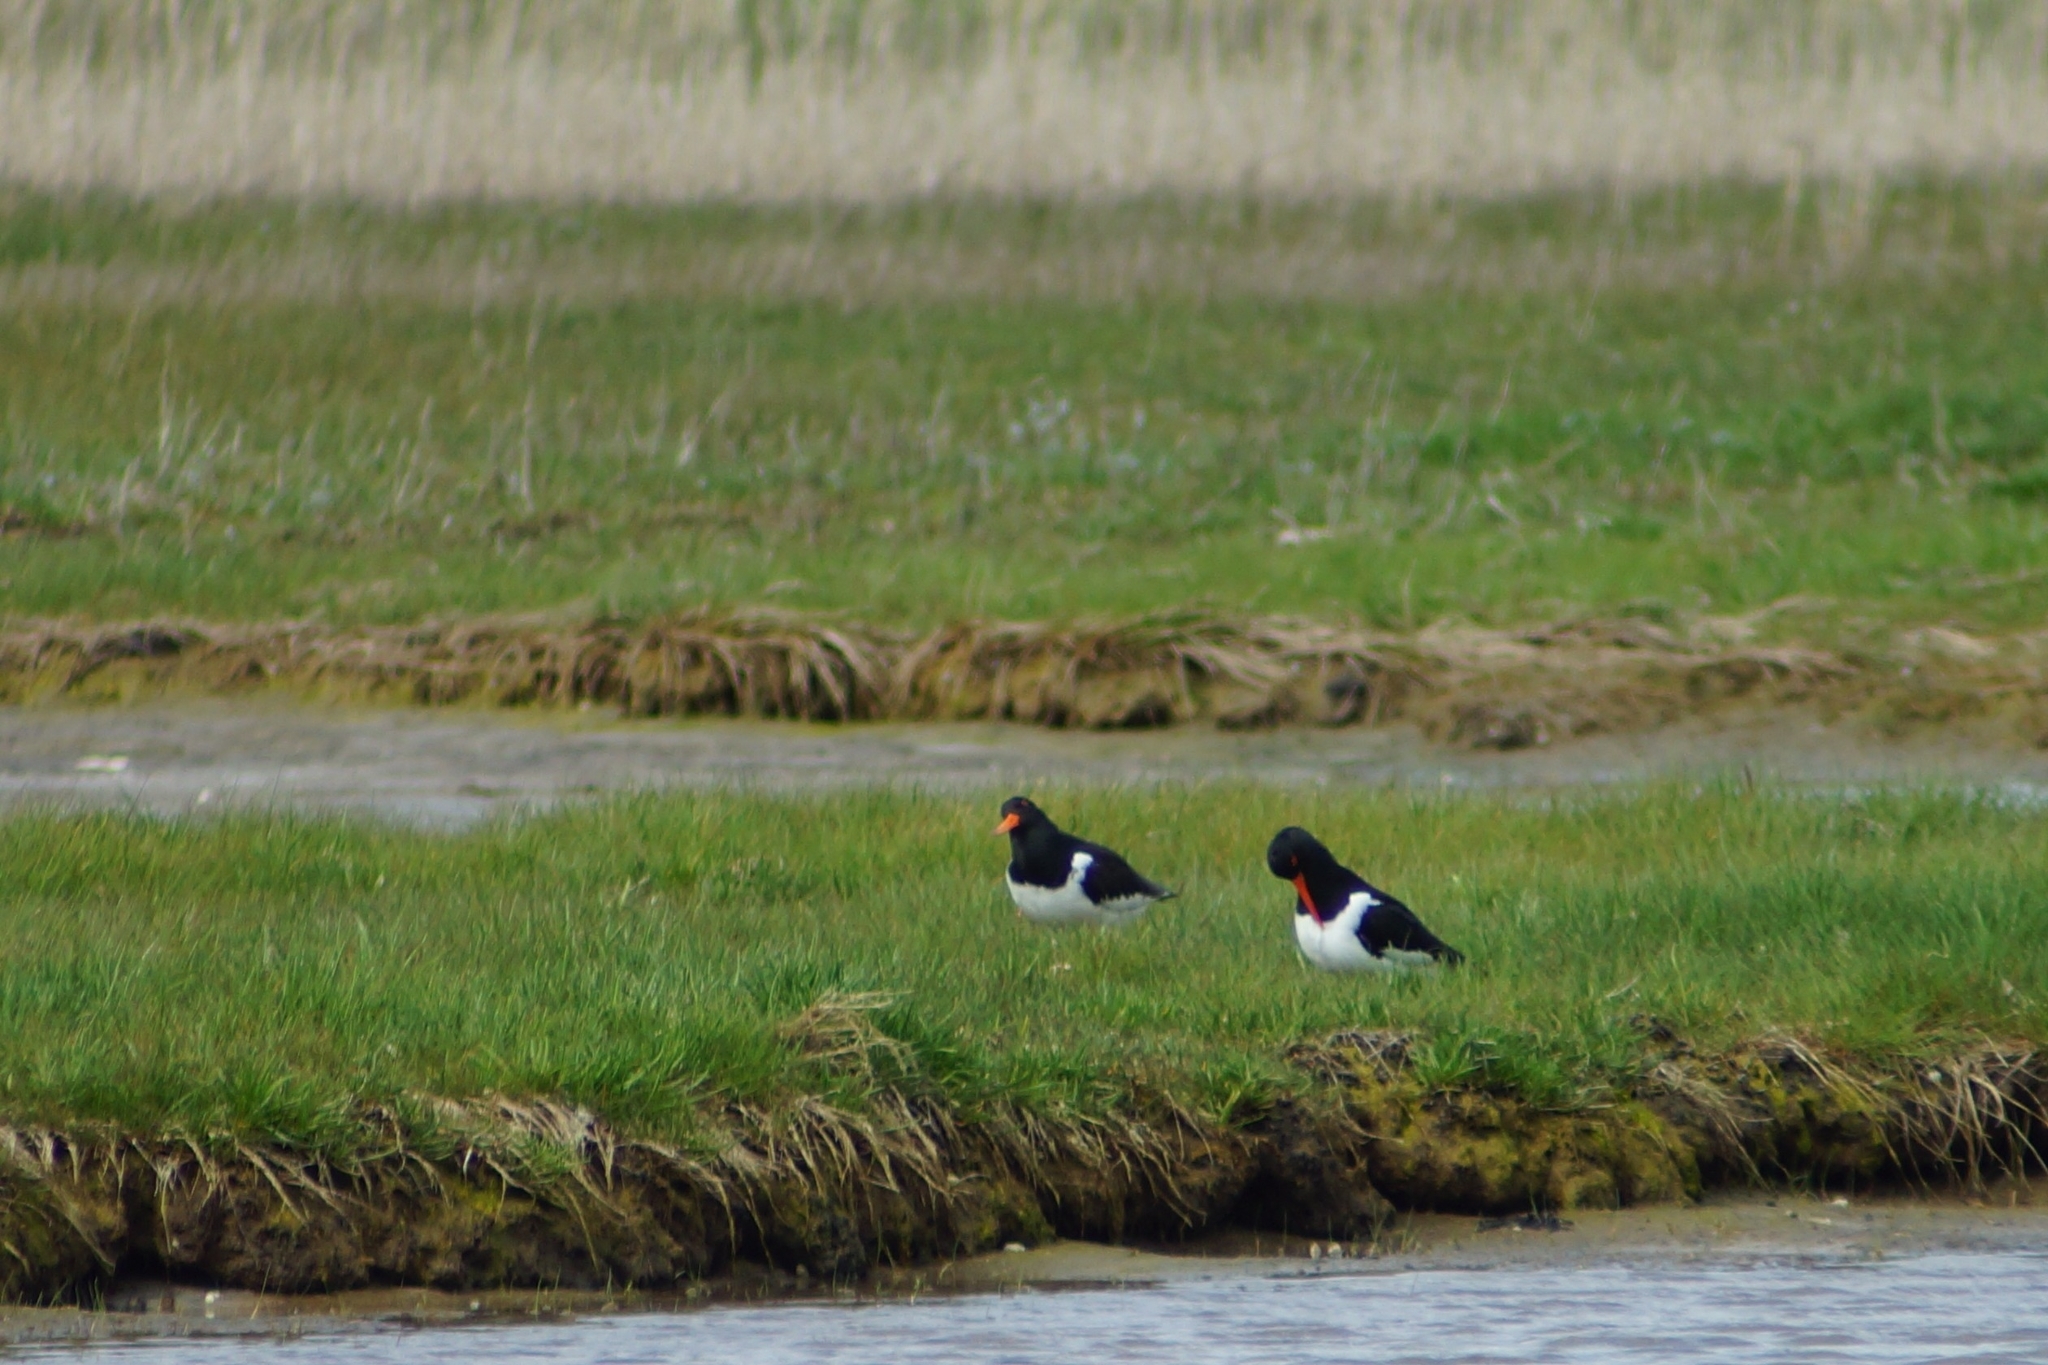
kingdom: Animalia
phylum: Chordata
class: Aves
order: Charadriiformes
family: Haematopodidae
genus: Haematopus
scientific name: Haematopus ostralegus
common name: Eurasian oystercatcher
